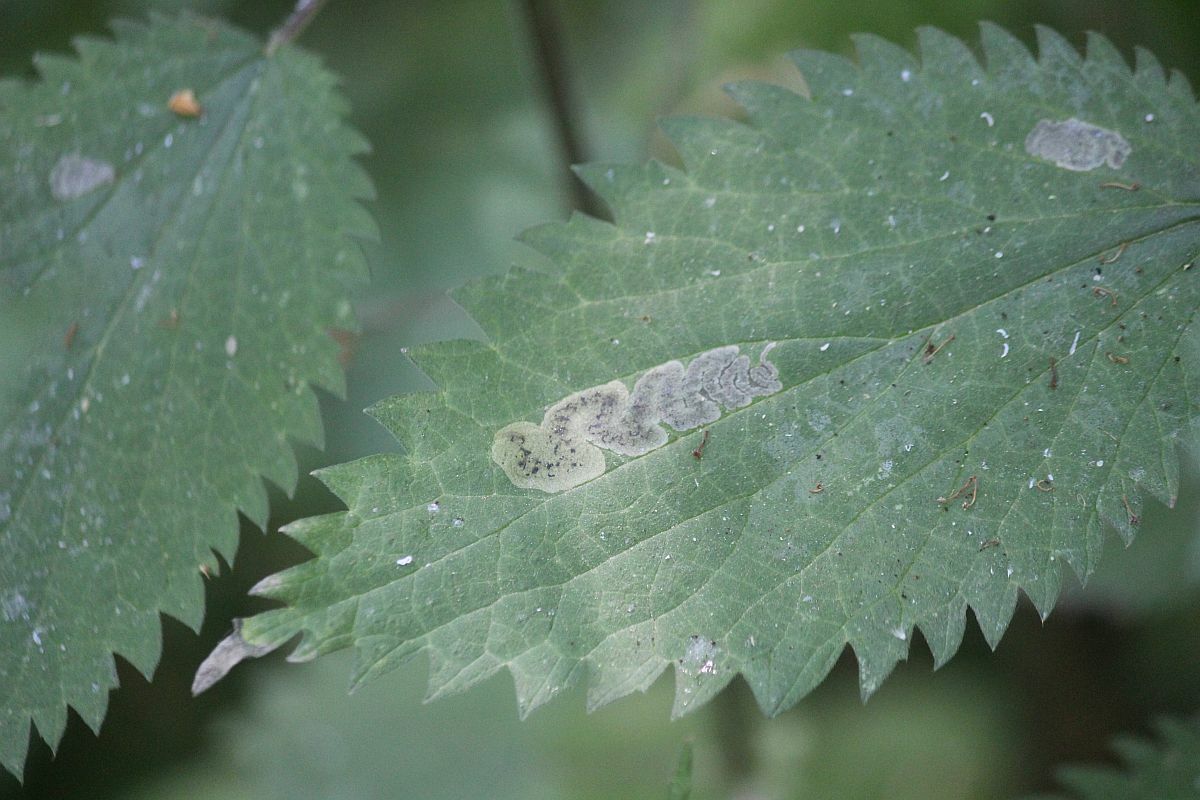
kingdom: Animalia
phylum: Arthropoda
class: Insecta
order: Diptera
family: Agromyzidae
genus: Agromyza
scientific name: Agromyza anthracina
